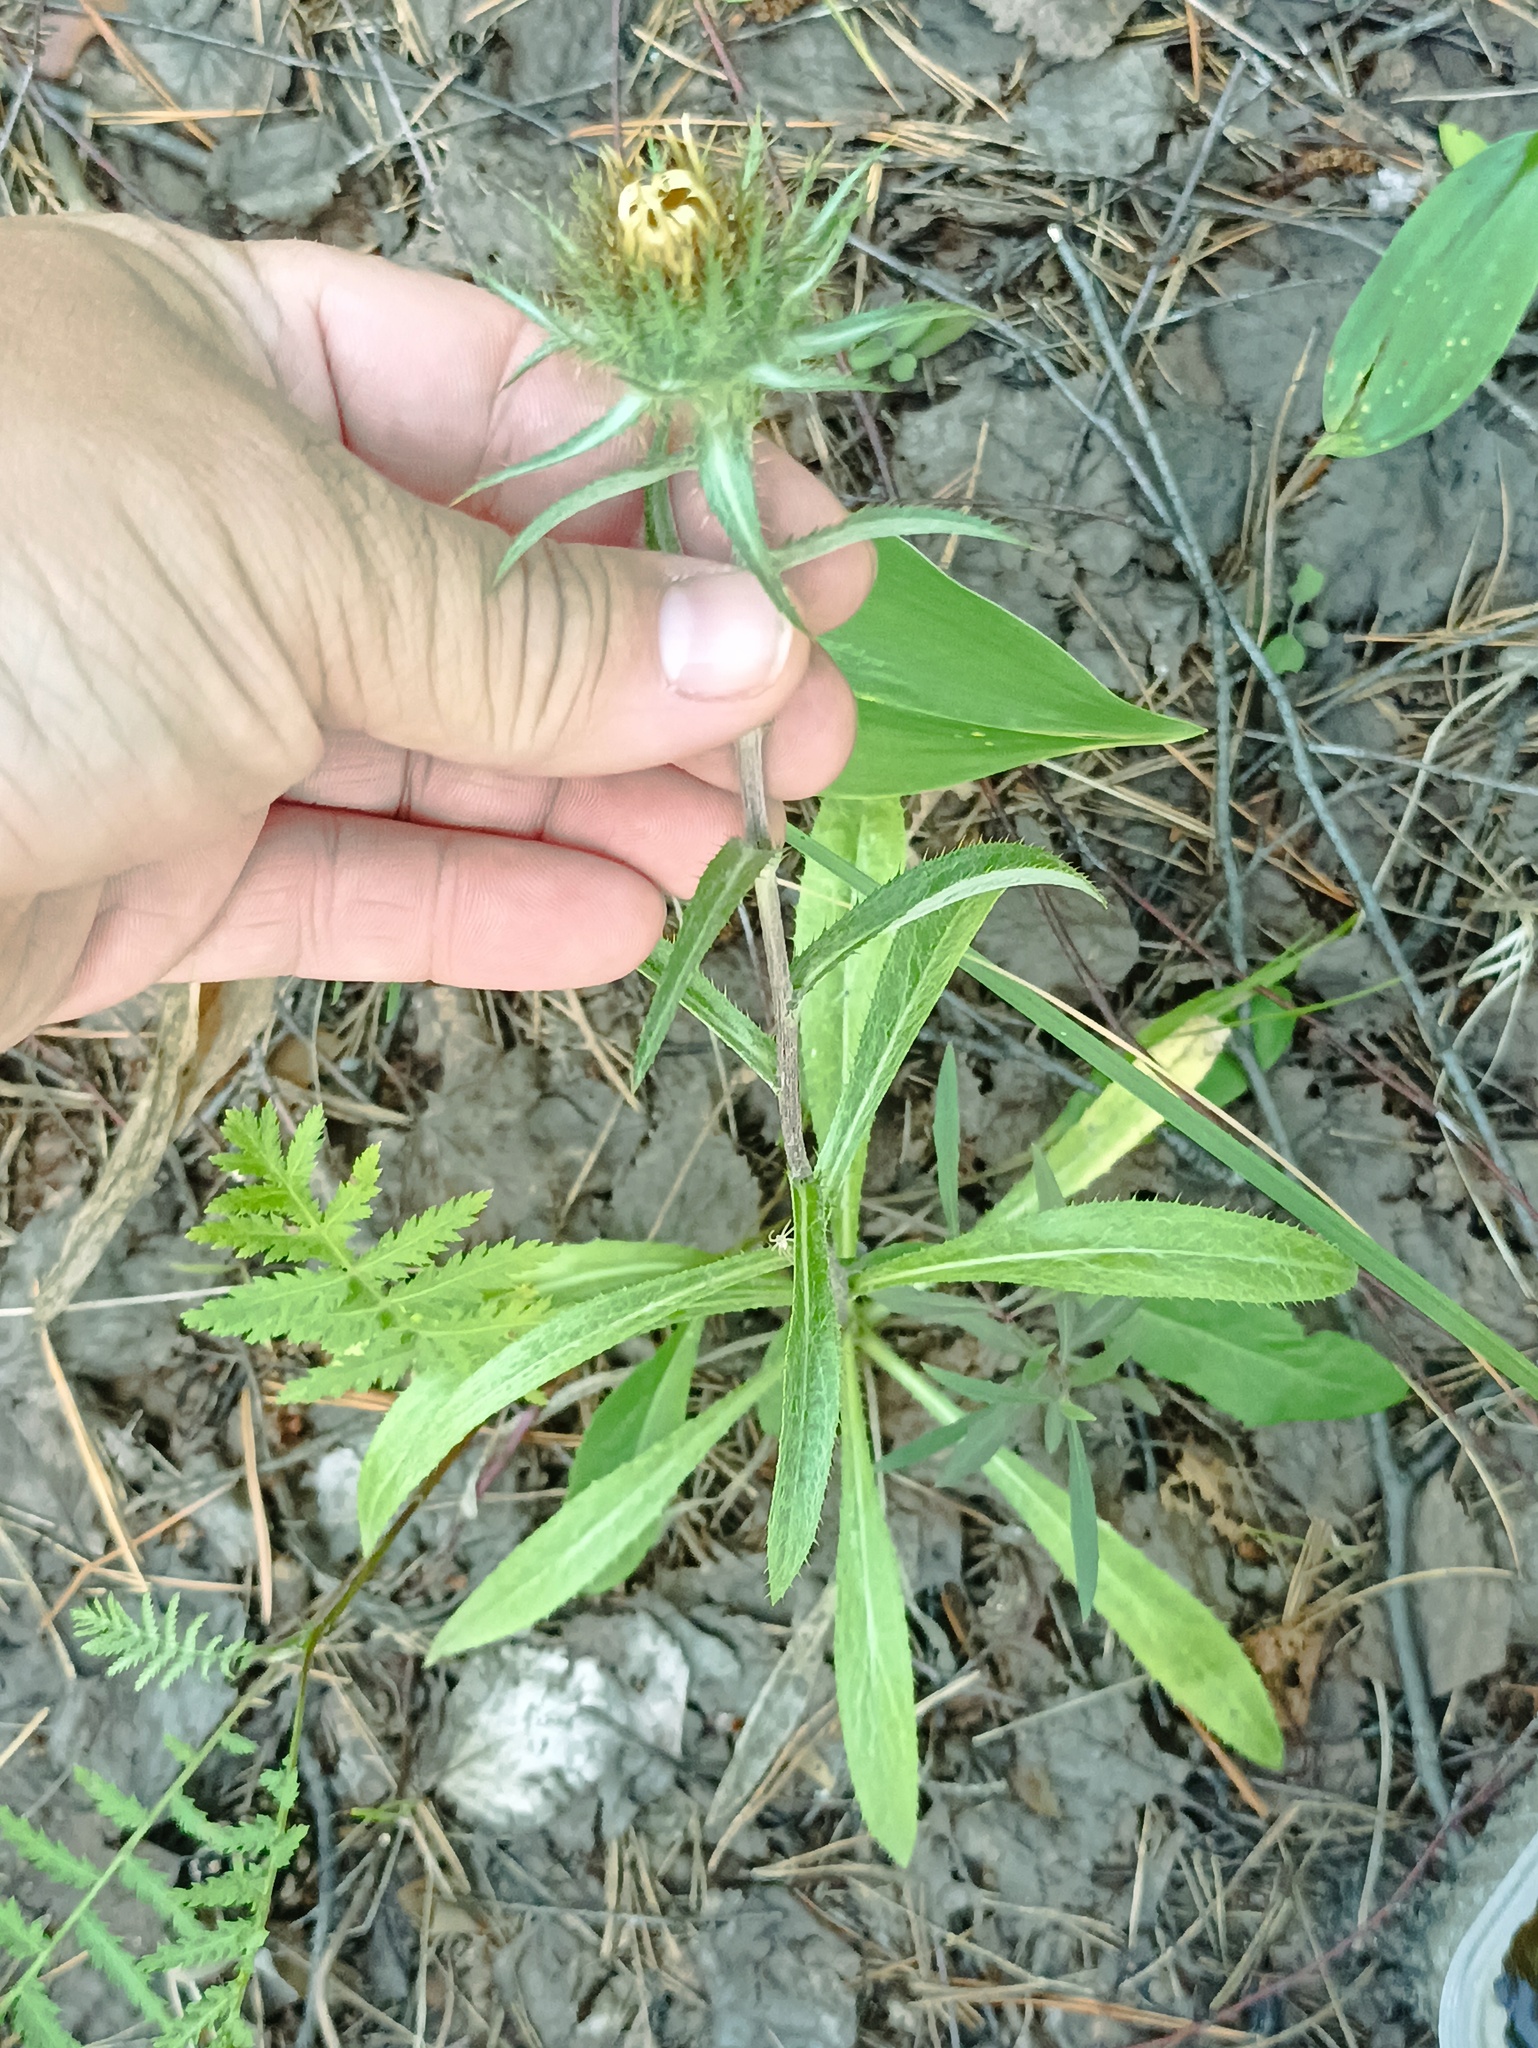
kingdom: Plantae
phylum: Tracheophyta
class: Magnoliopsida
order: Asterales
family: Asteraceae
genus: Carlina
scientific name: Carlina biebersteinii
